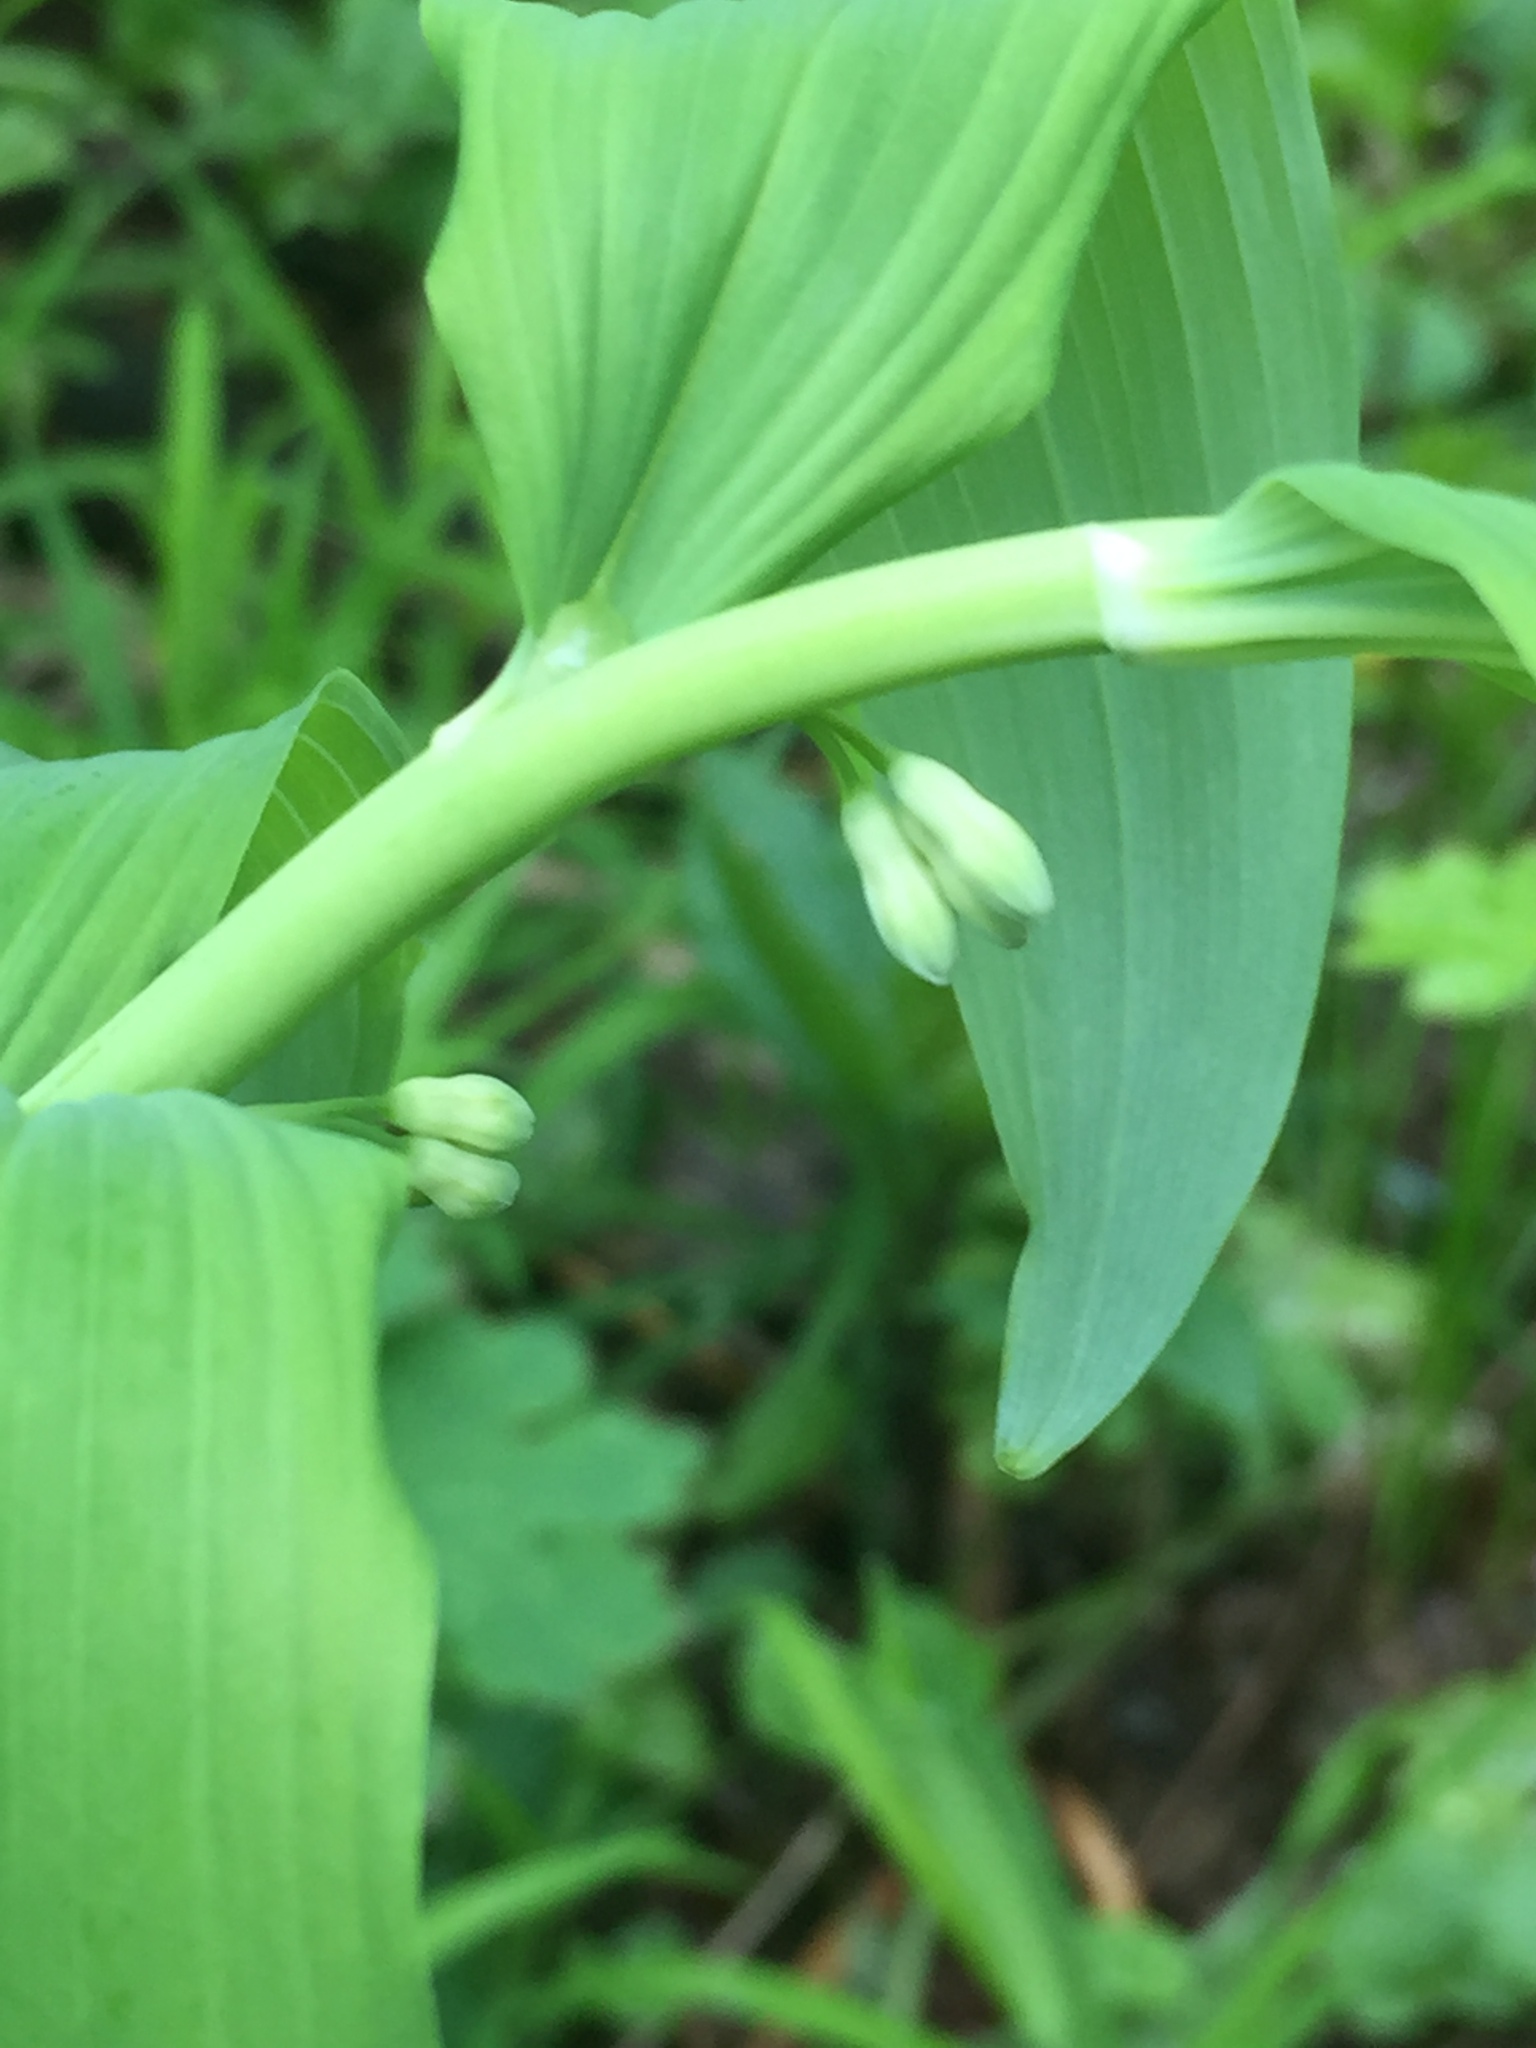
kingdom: Plantae
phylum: Tracheophyta
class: Liliopsida
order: Asparagales
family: Asparagaceae
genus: Polygonatum
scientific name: Polygonatum multiflorum
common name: Solomon's-seal
